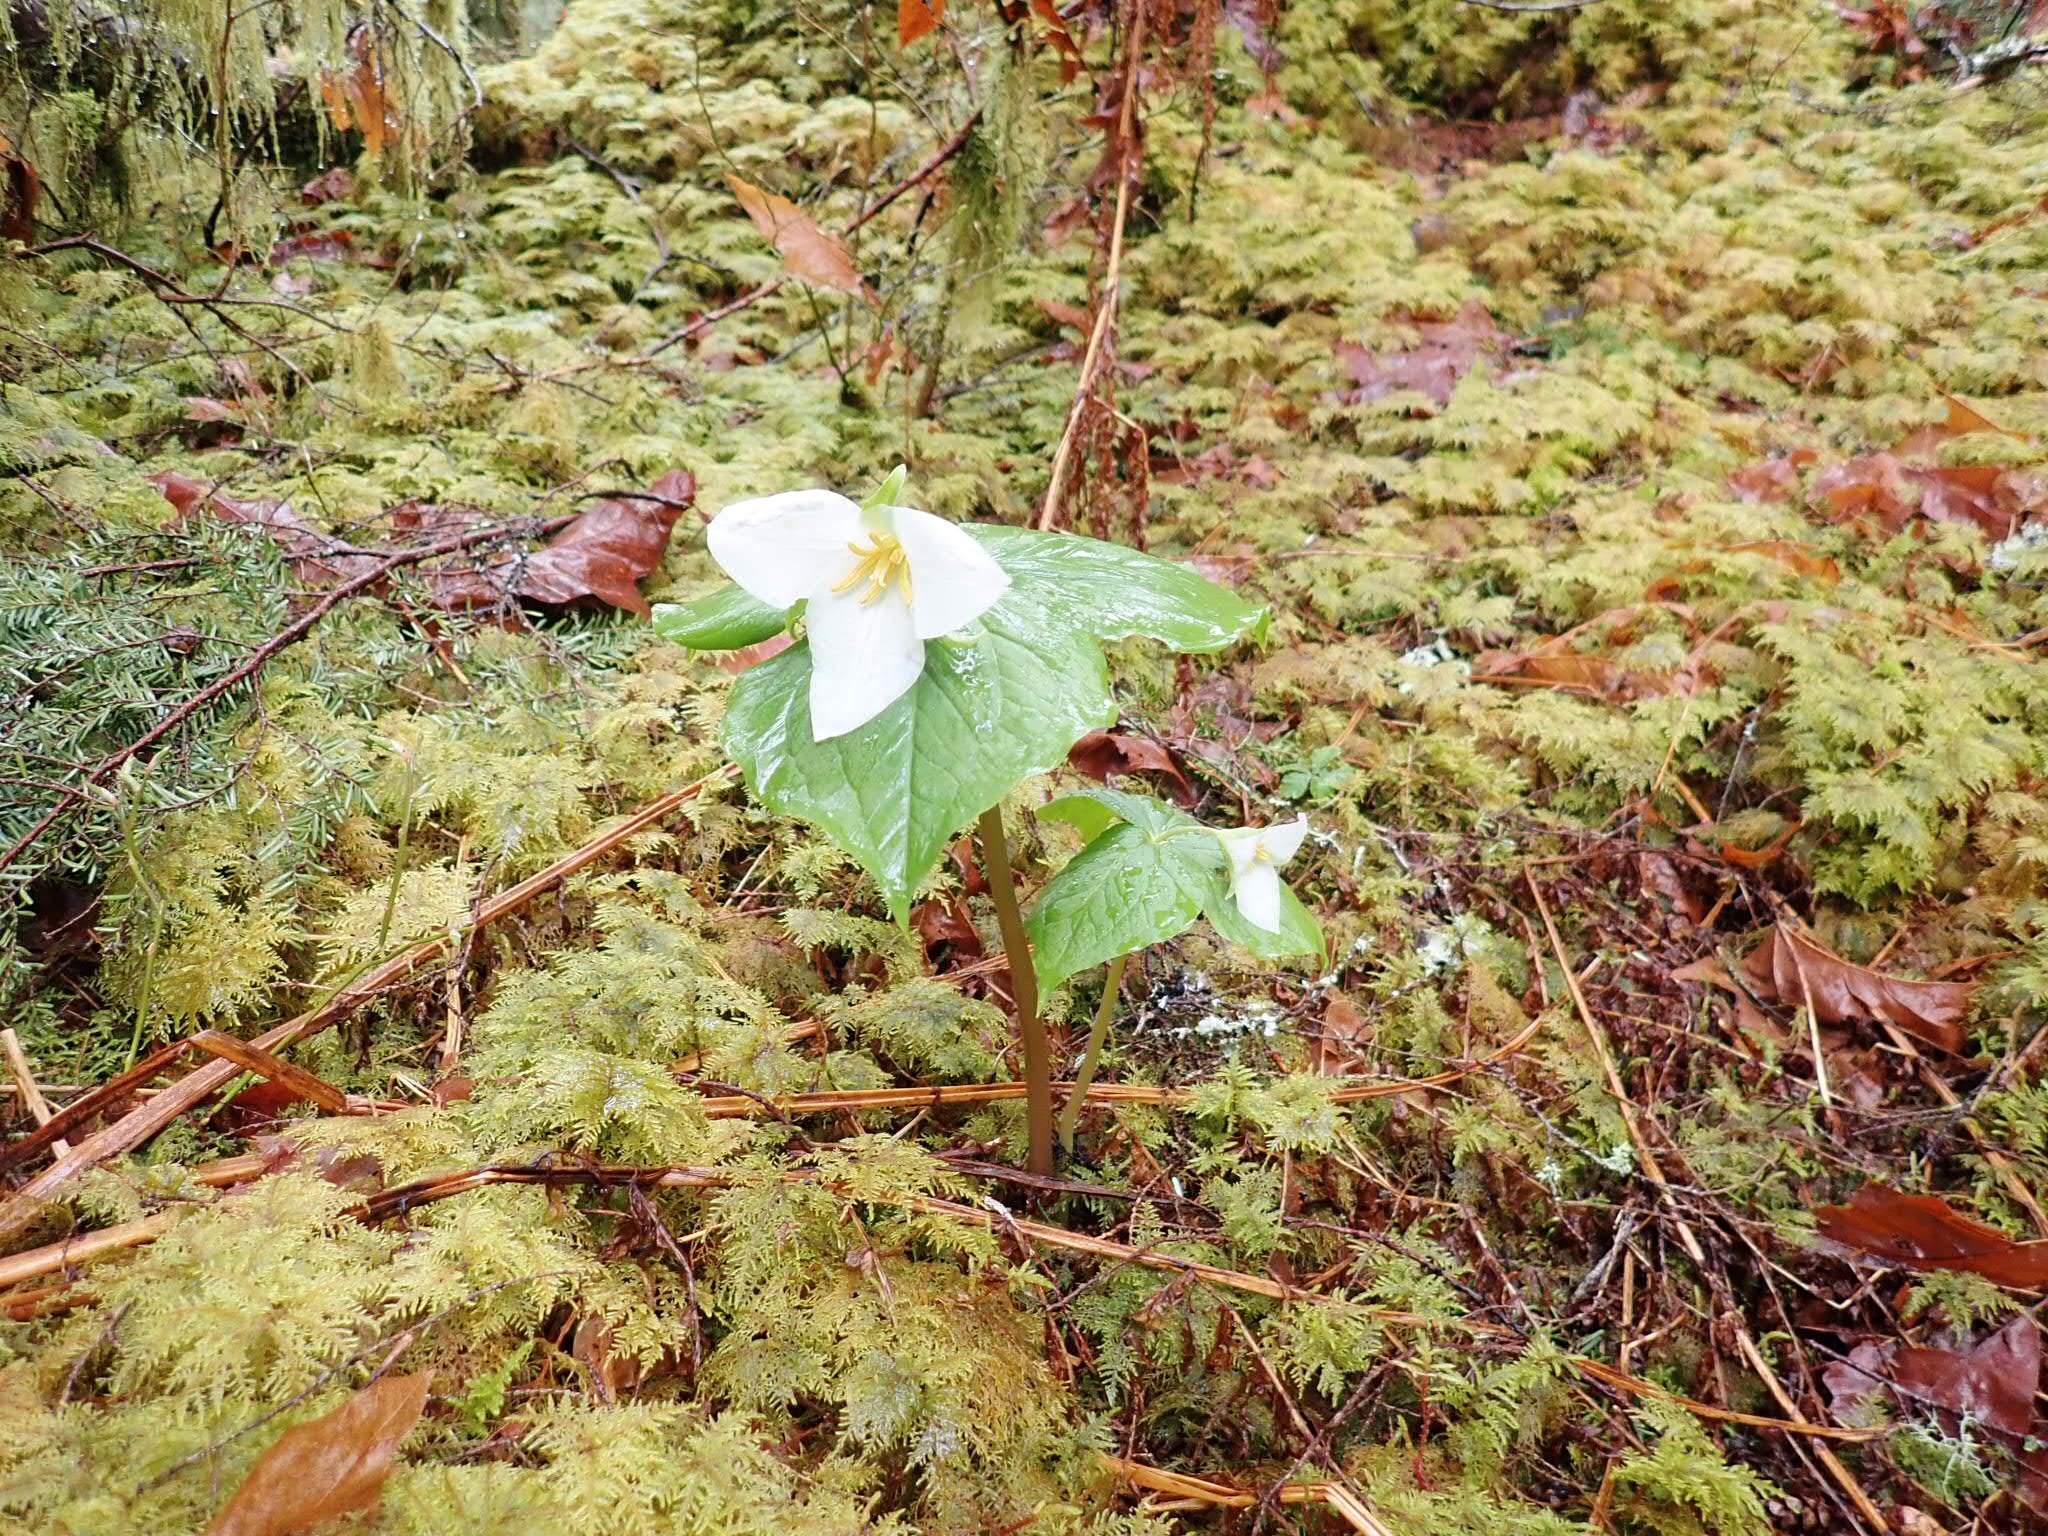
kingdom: Plantae
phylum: Tracheophyta
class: Liliopsida
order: Liliales
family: Melanthiaceae
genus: Trillium
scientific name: Trillium ovatum
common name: Pacific trillium
